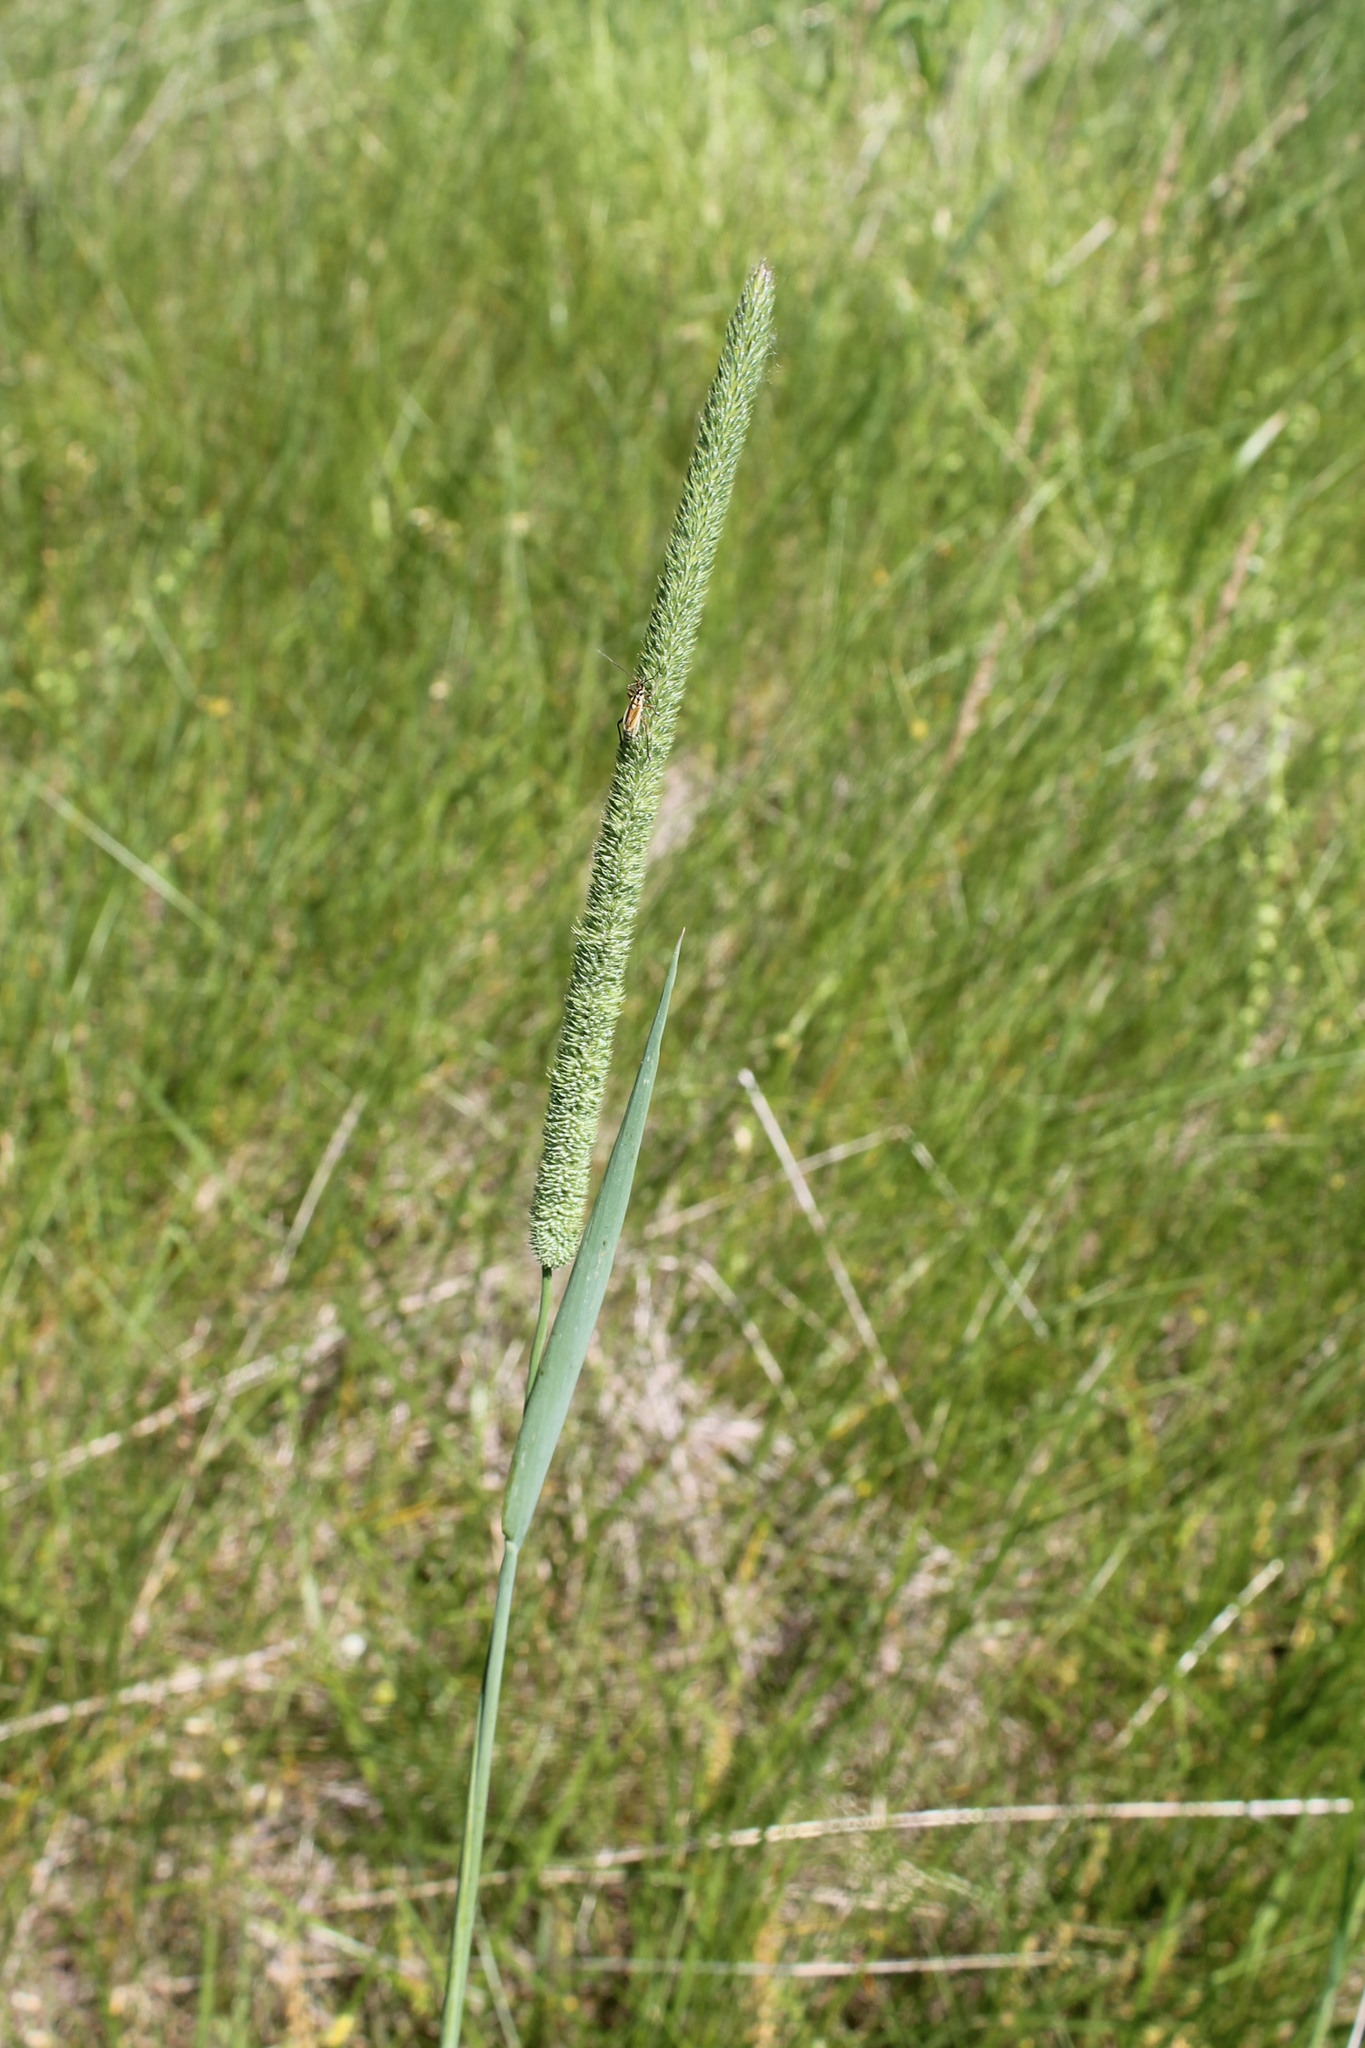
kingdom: Plantae
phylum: Tracheophyta
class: Liliopsida
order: Poales
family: Poaceae
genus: Phleum
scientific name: Phleum pratense
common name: Timothy grass
